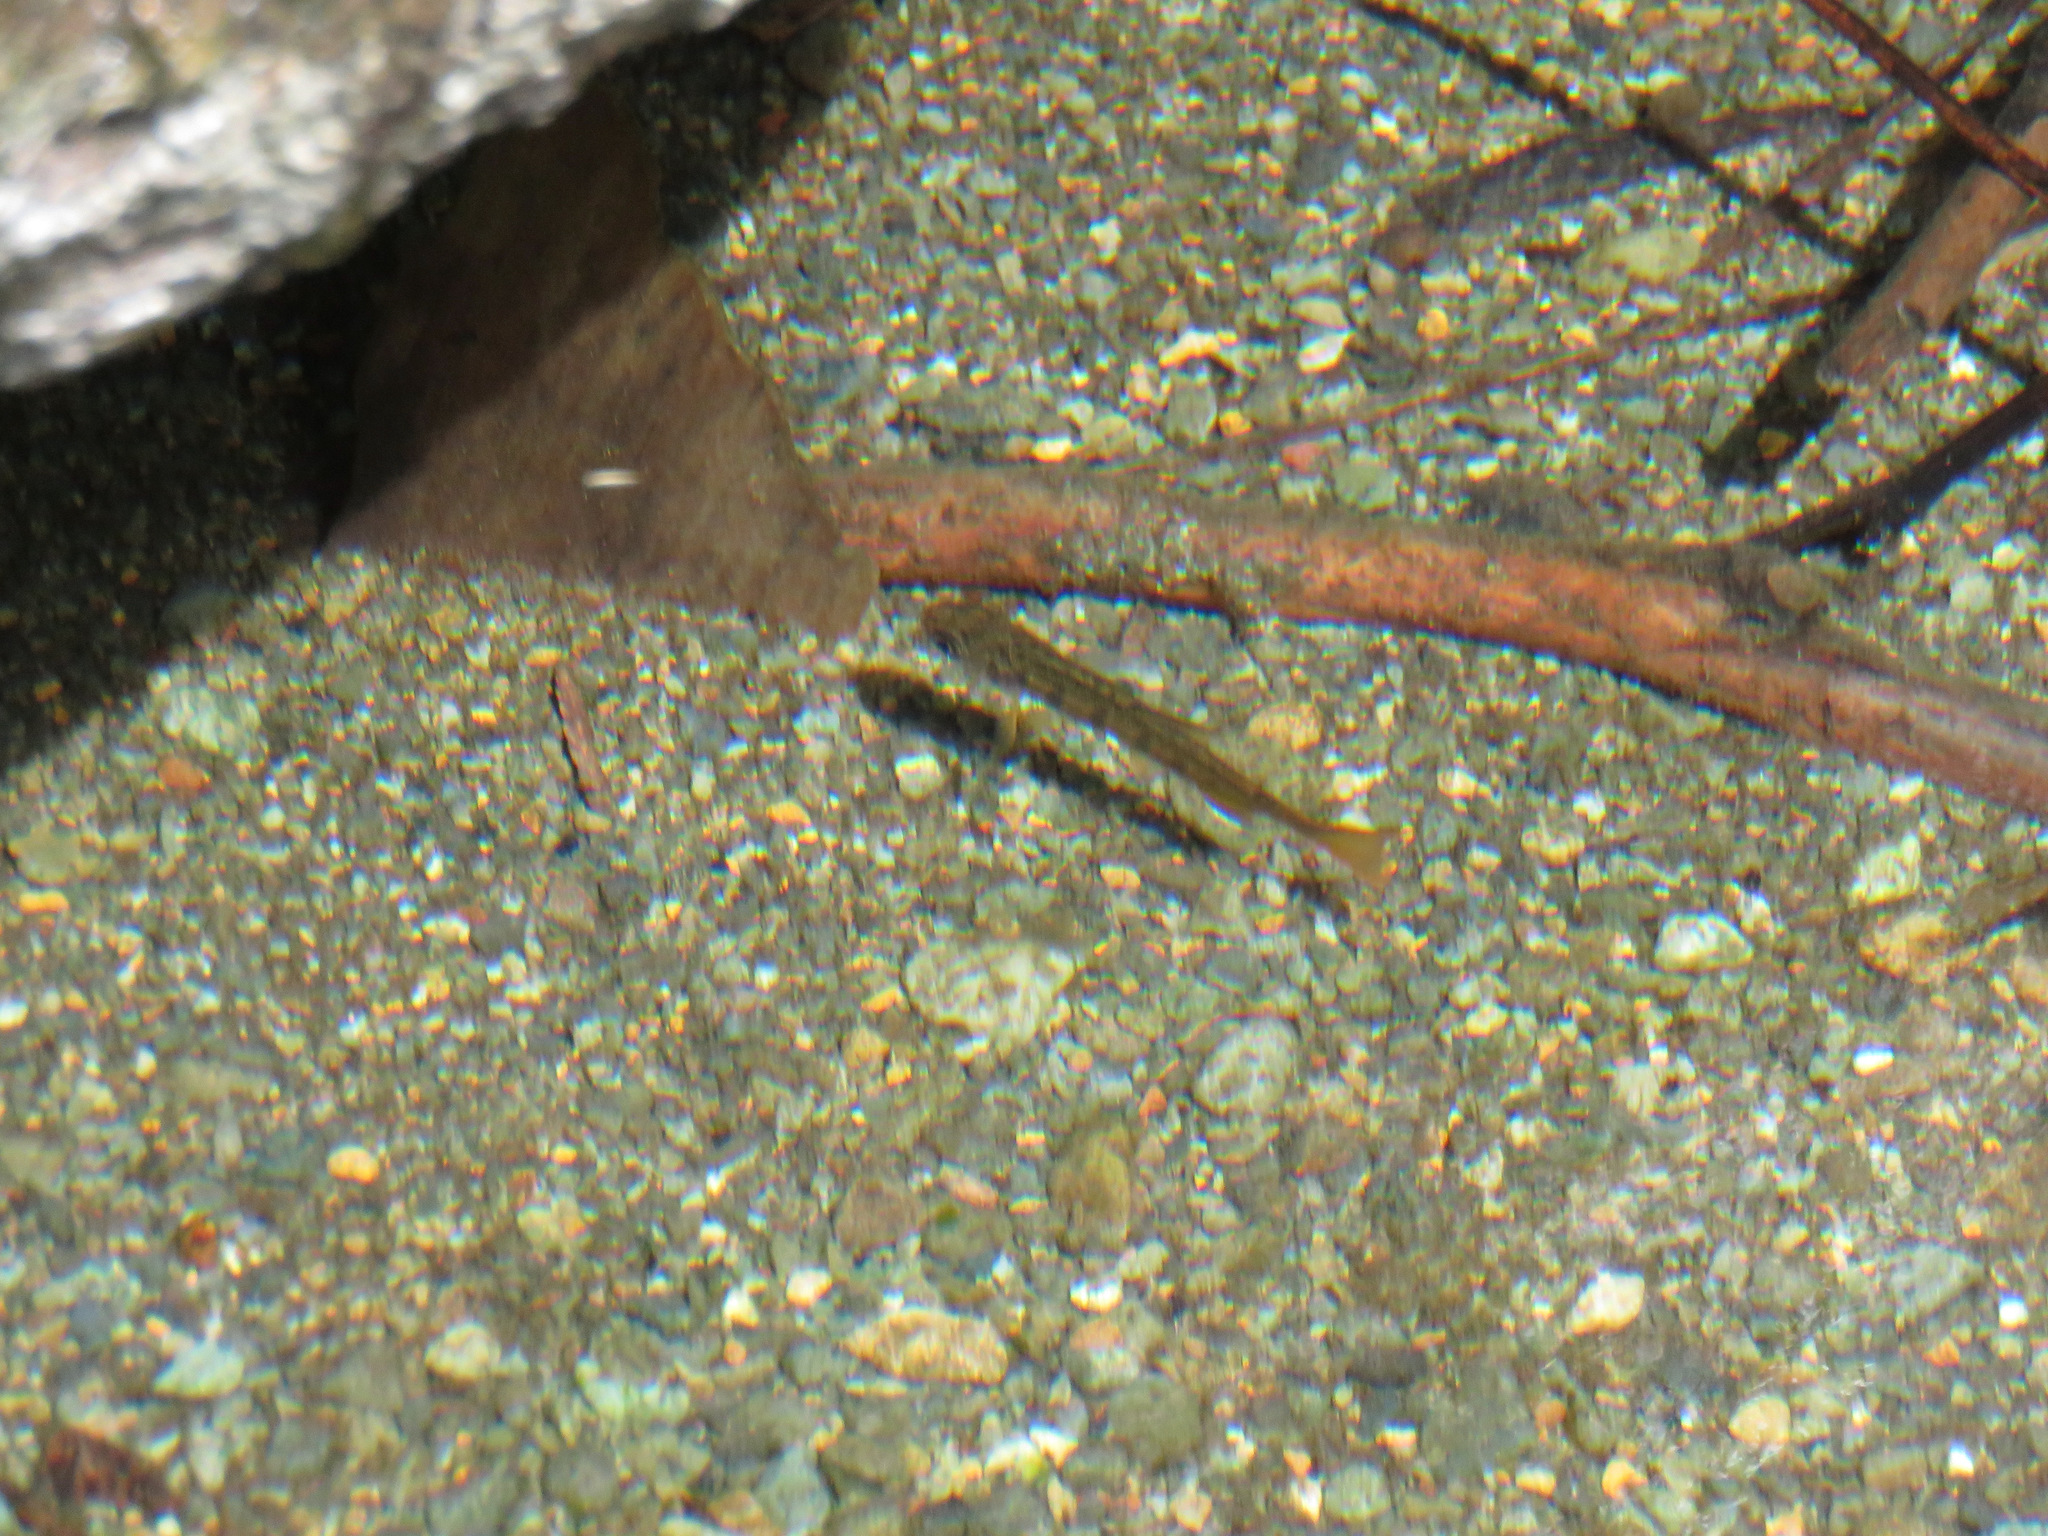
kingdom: Animalia
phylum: Chordata
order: Salmoniformes
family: Salmonidae
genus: Oncorhynchus
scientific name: Oncorhynchus kisutch
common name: Coho salmon
